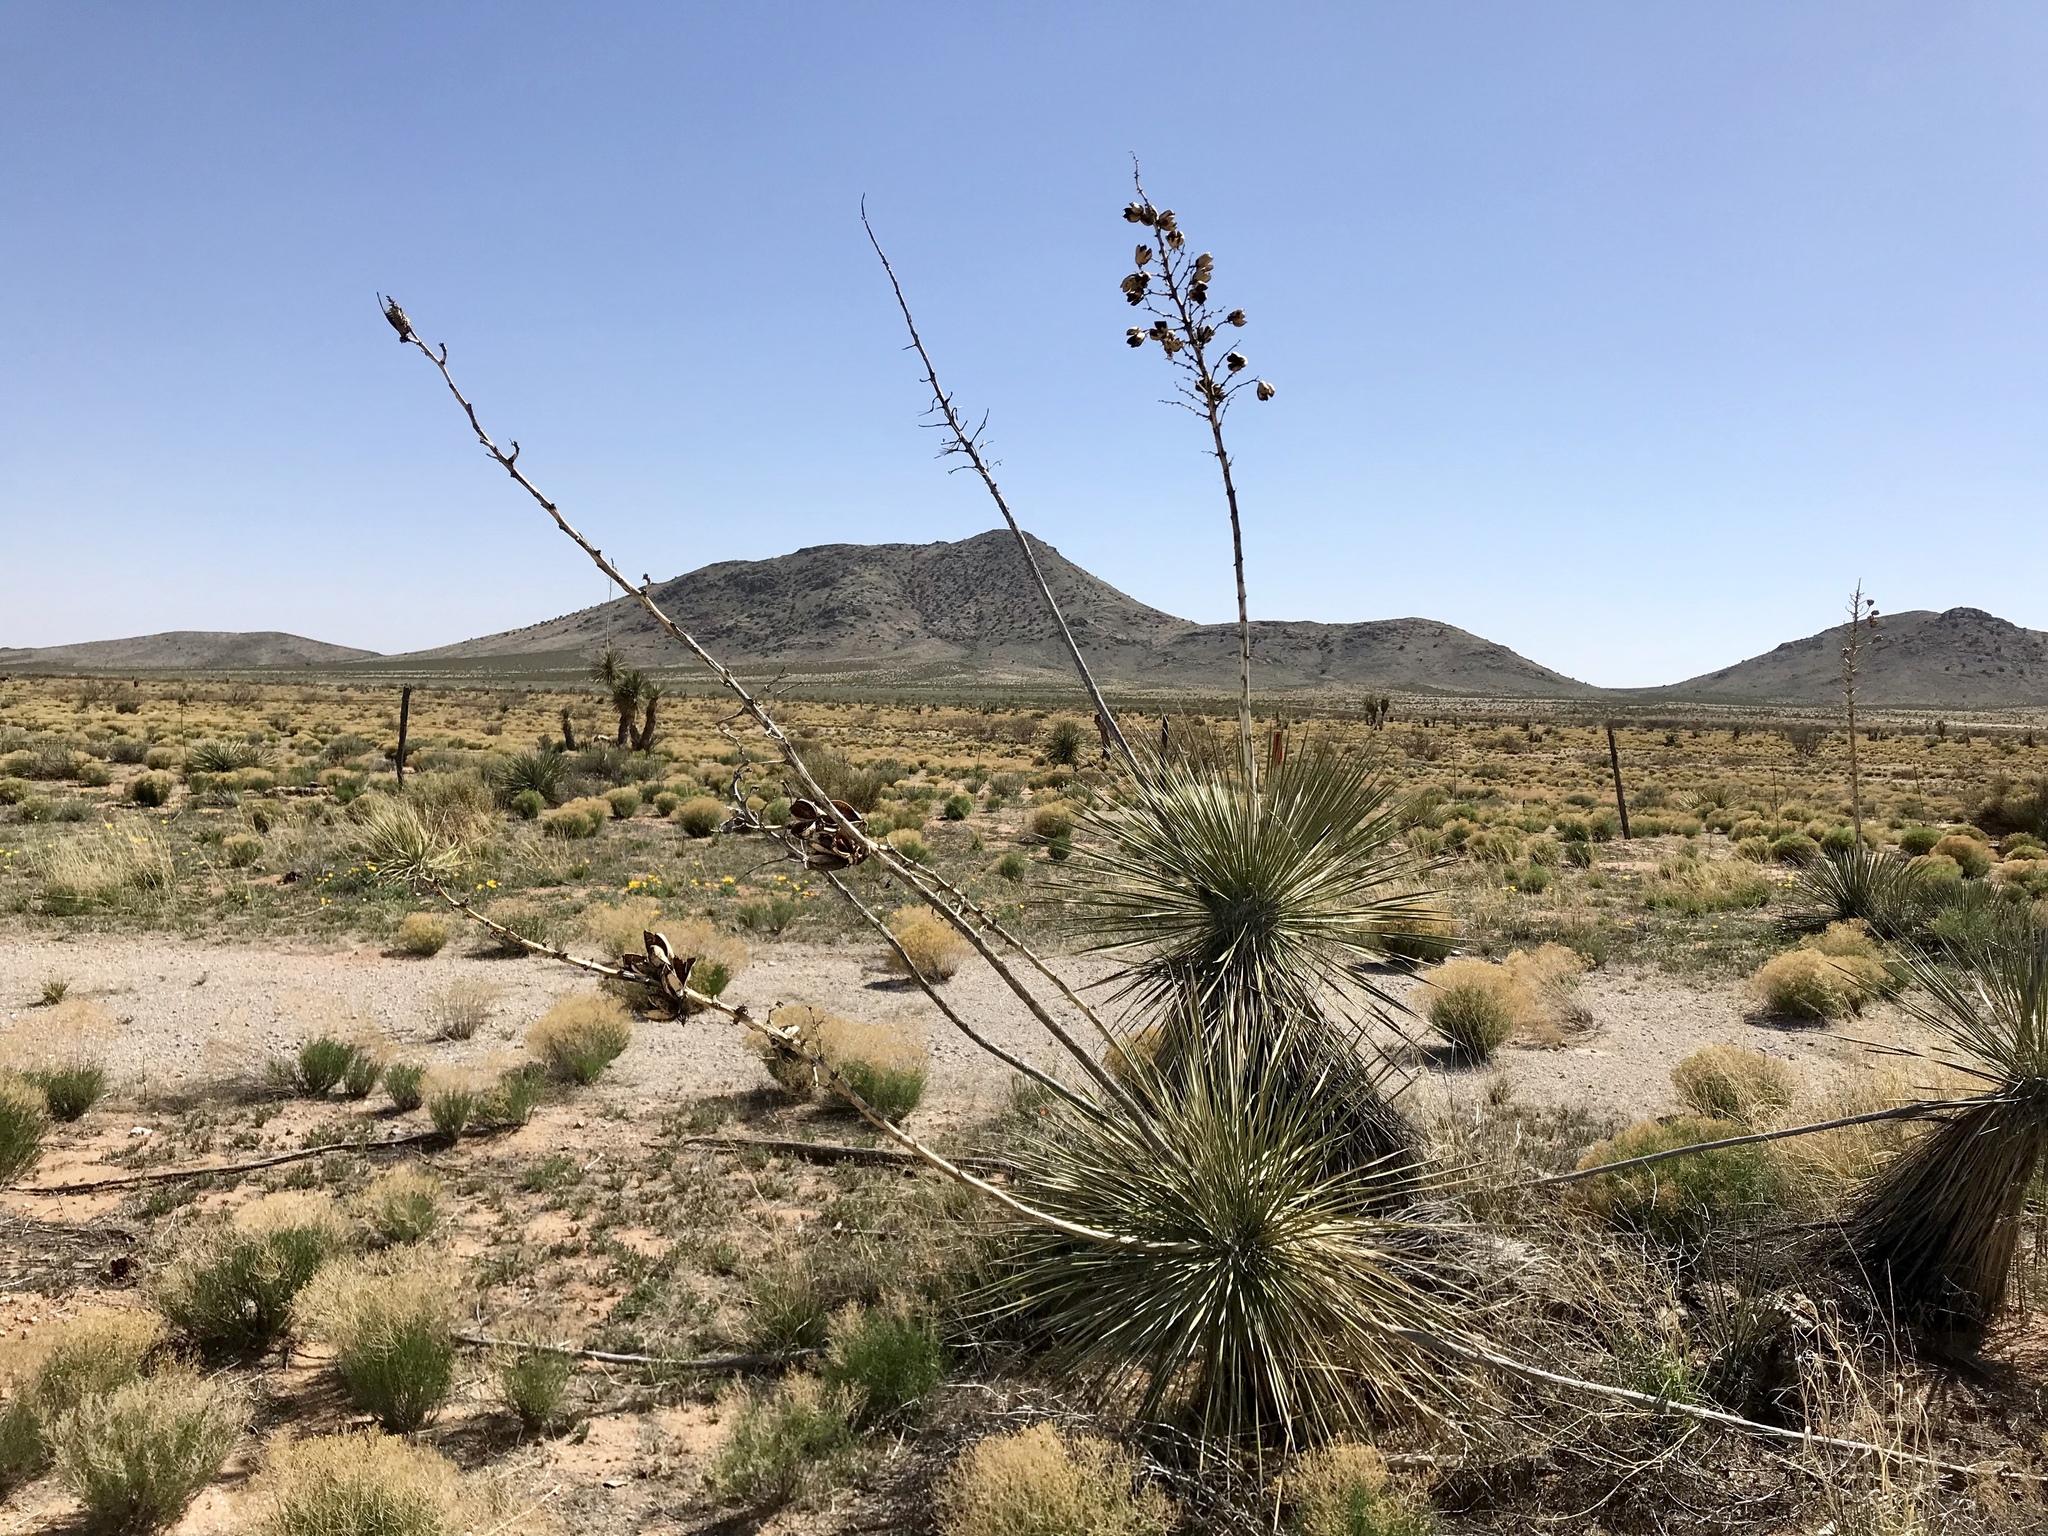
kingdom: Plantae
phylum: Tracheophyta
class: Liliopsida
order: Asparagales
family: Asparagaceae
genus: Yucca
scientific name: Yucca elata
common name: Palmella
